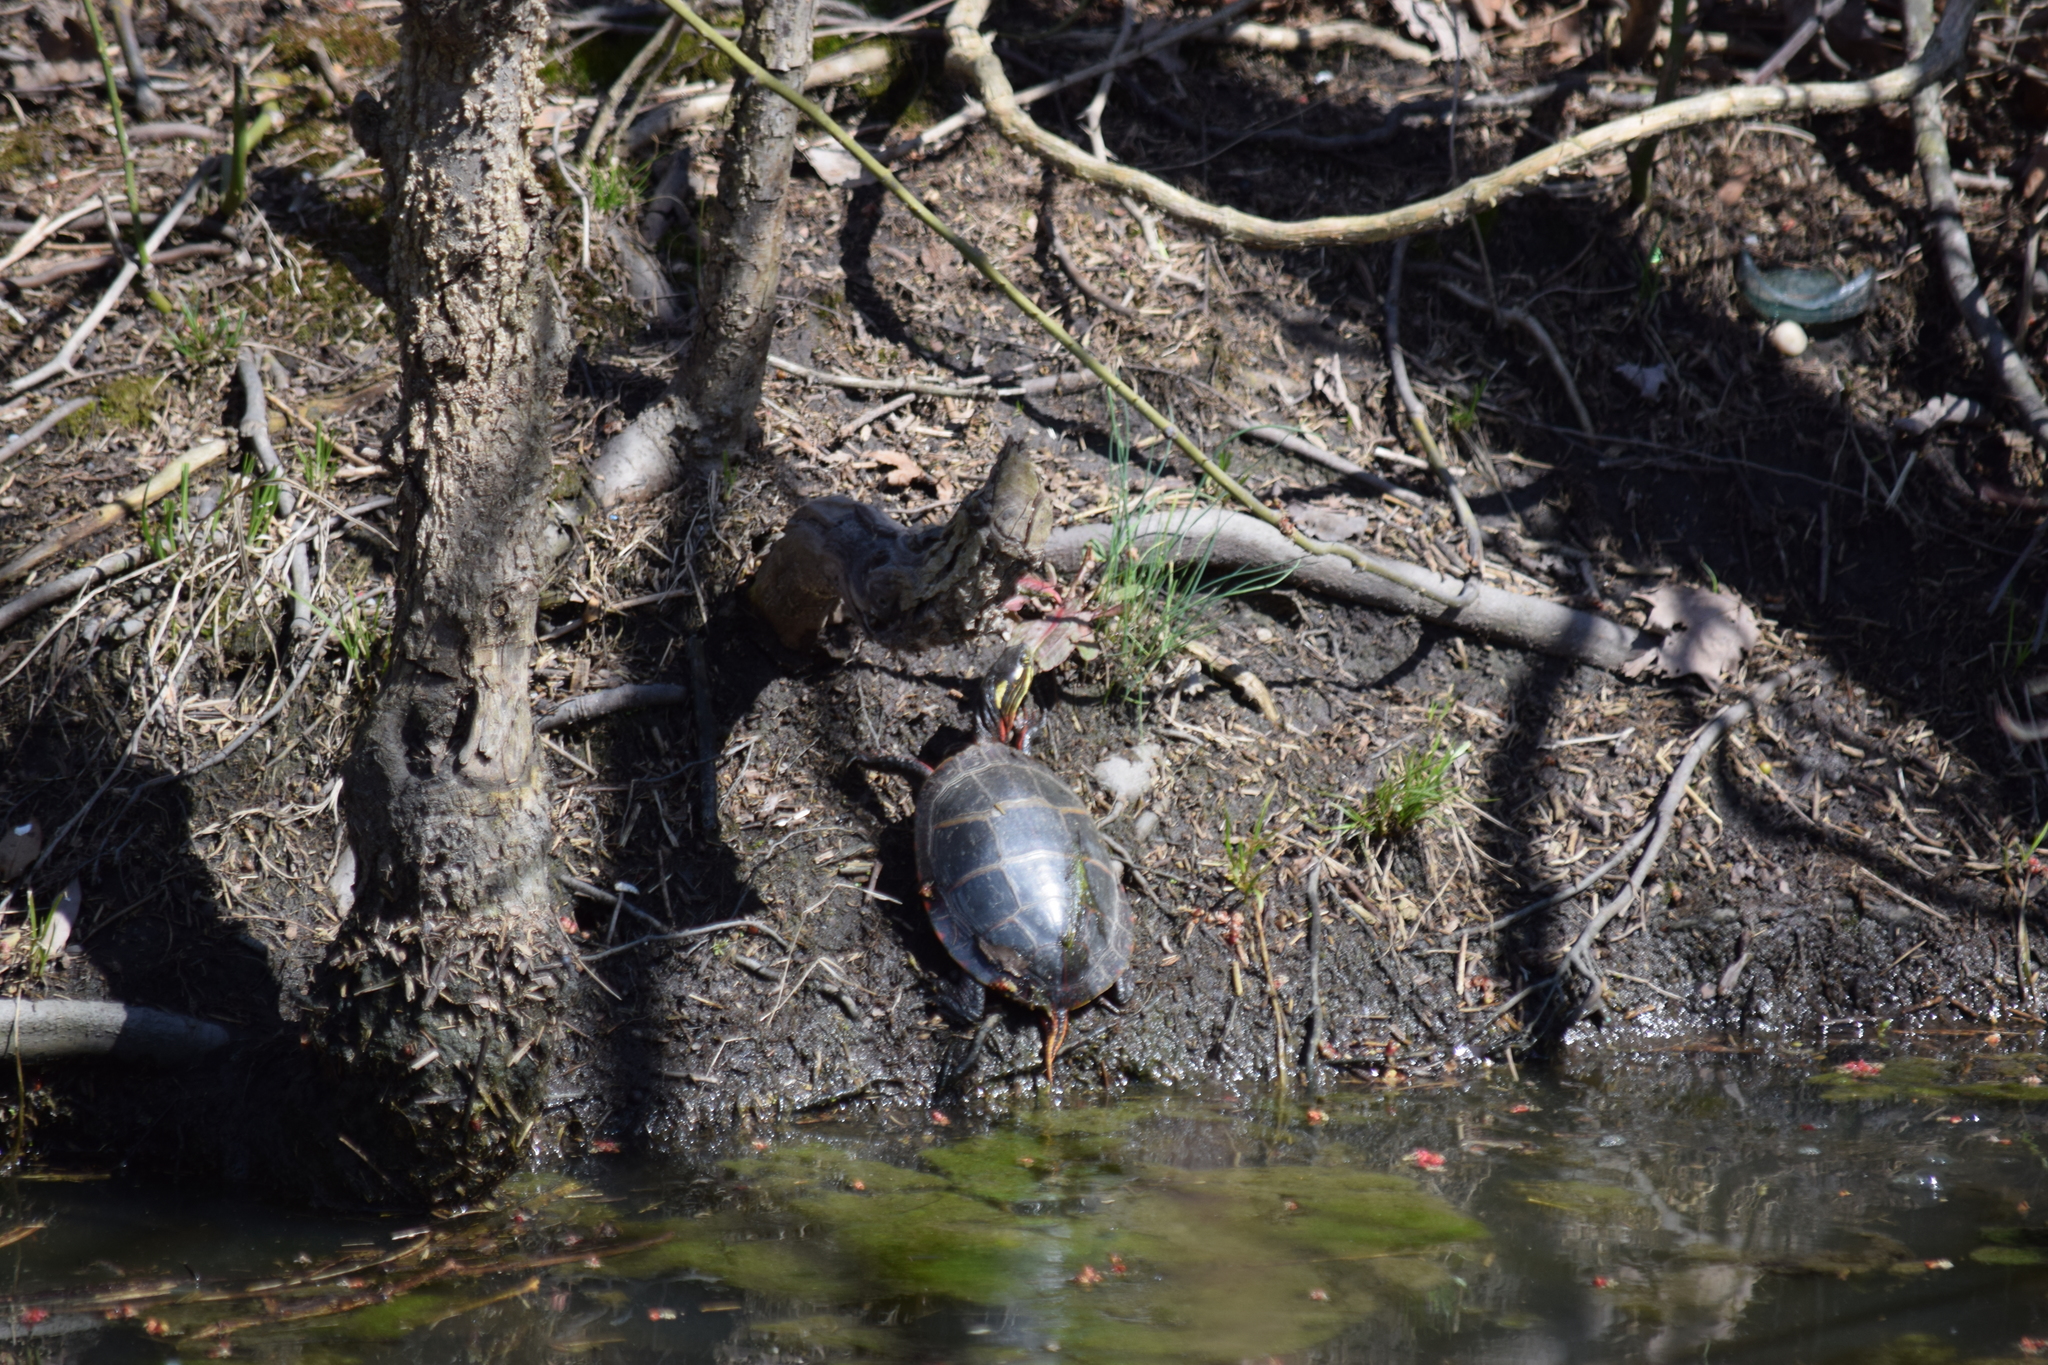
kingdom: Animalia
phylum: Chordata
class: Testudines
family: Emydidae
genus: Chrysemys
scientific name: Chrysemys picta
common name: Painted turtle
